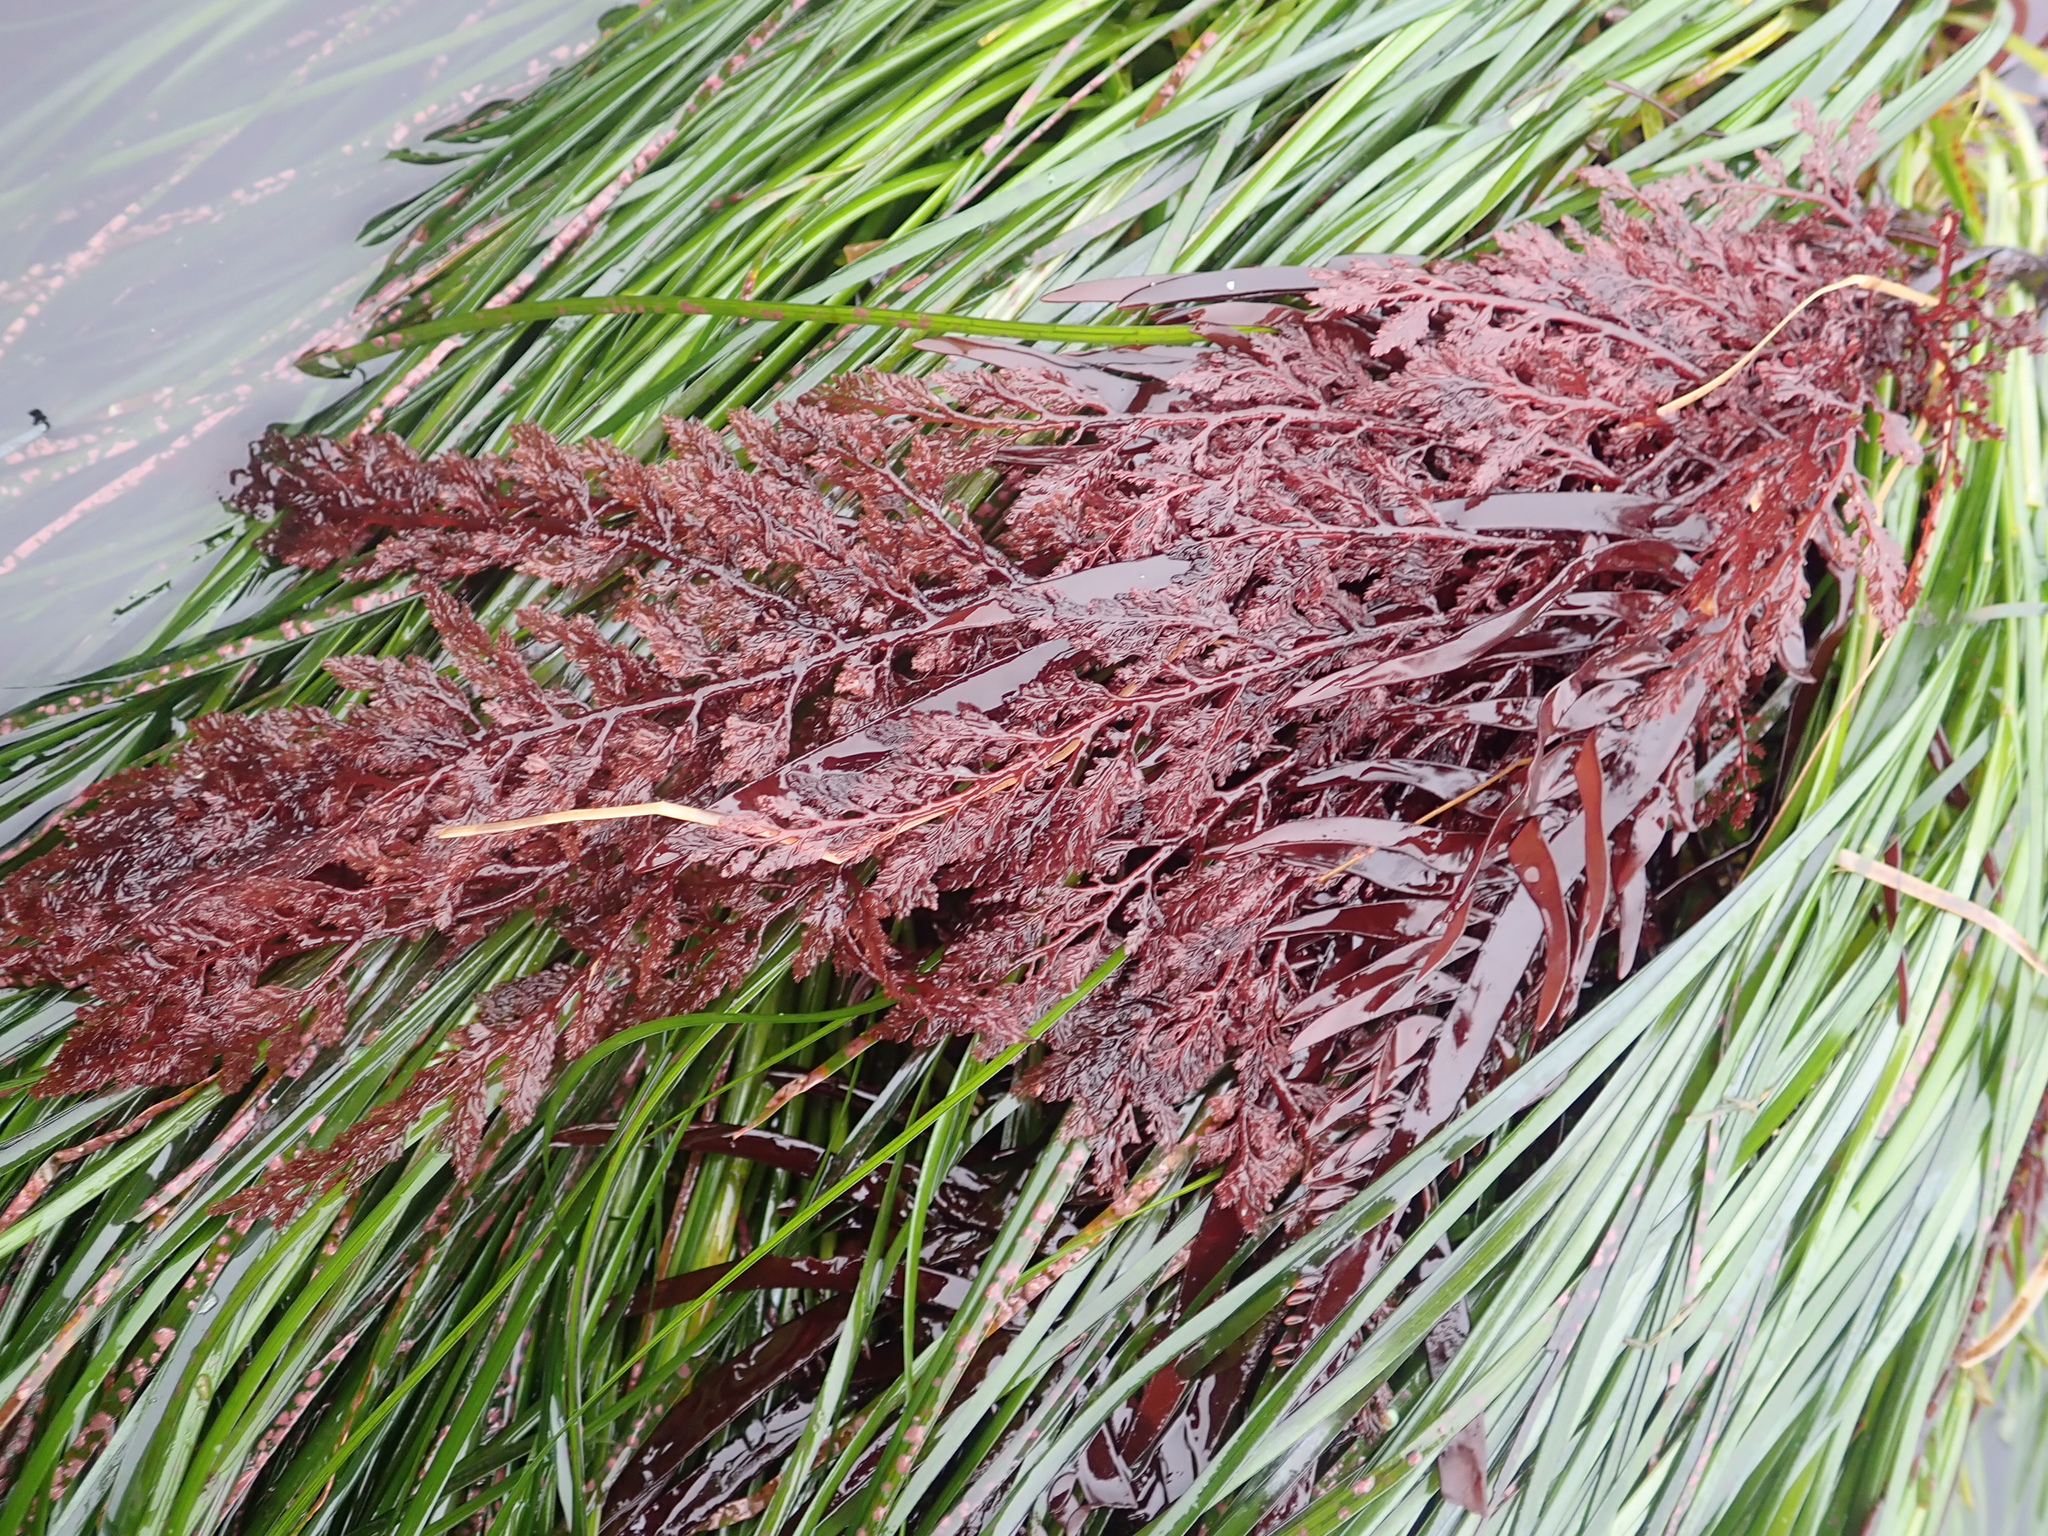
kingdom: Plantae
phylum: Rhodophyta
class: Florideophyceae
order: Ceramiales
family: Ceramiaceae
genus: Microcladia
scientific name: Microcladia coulteri
